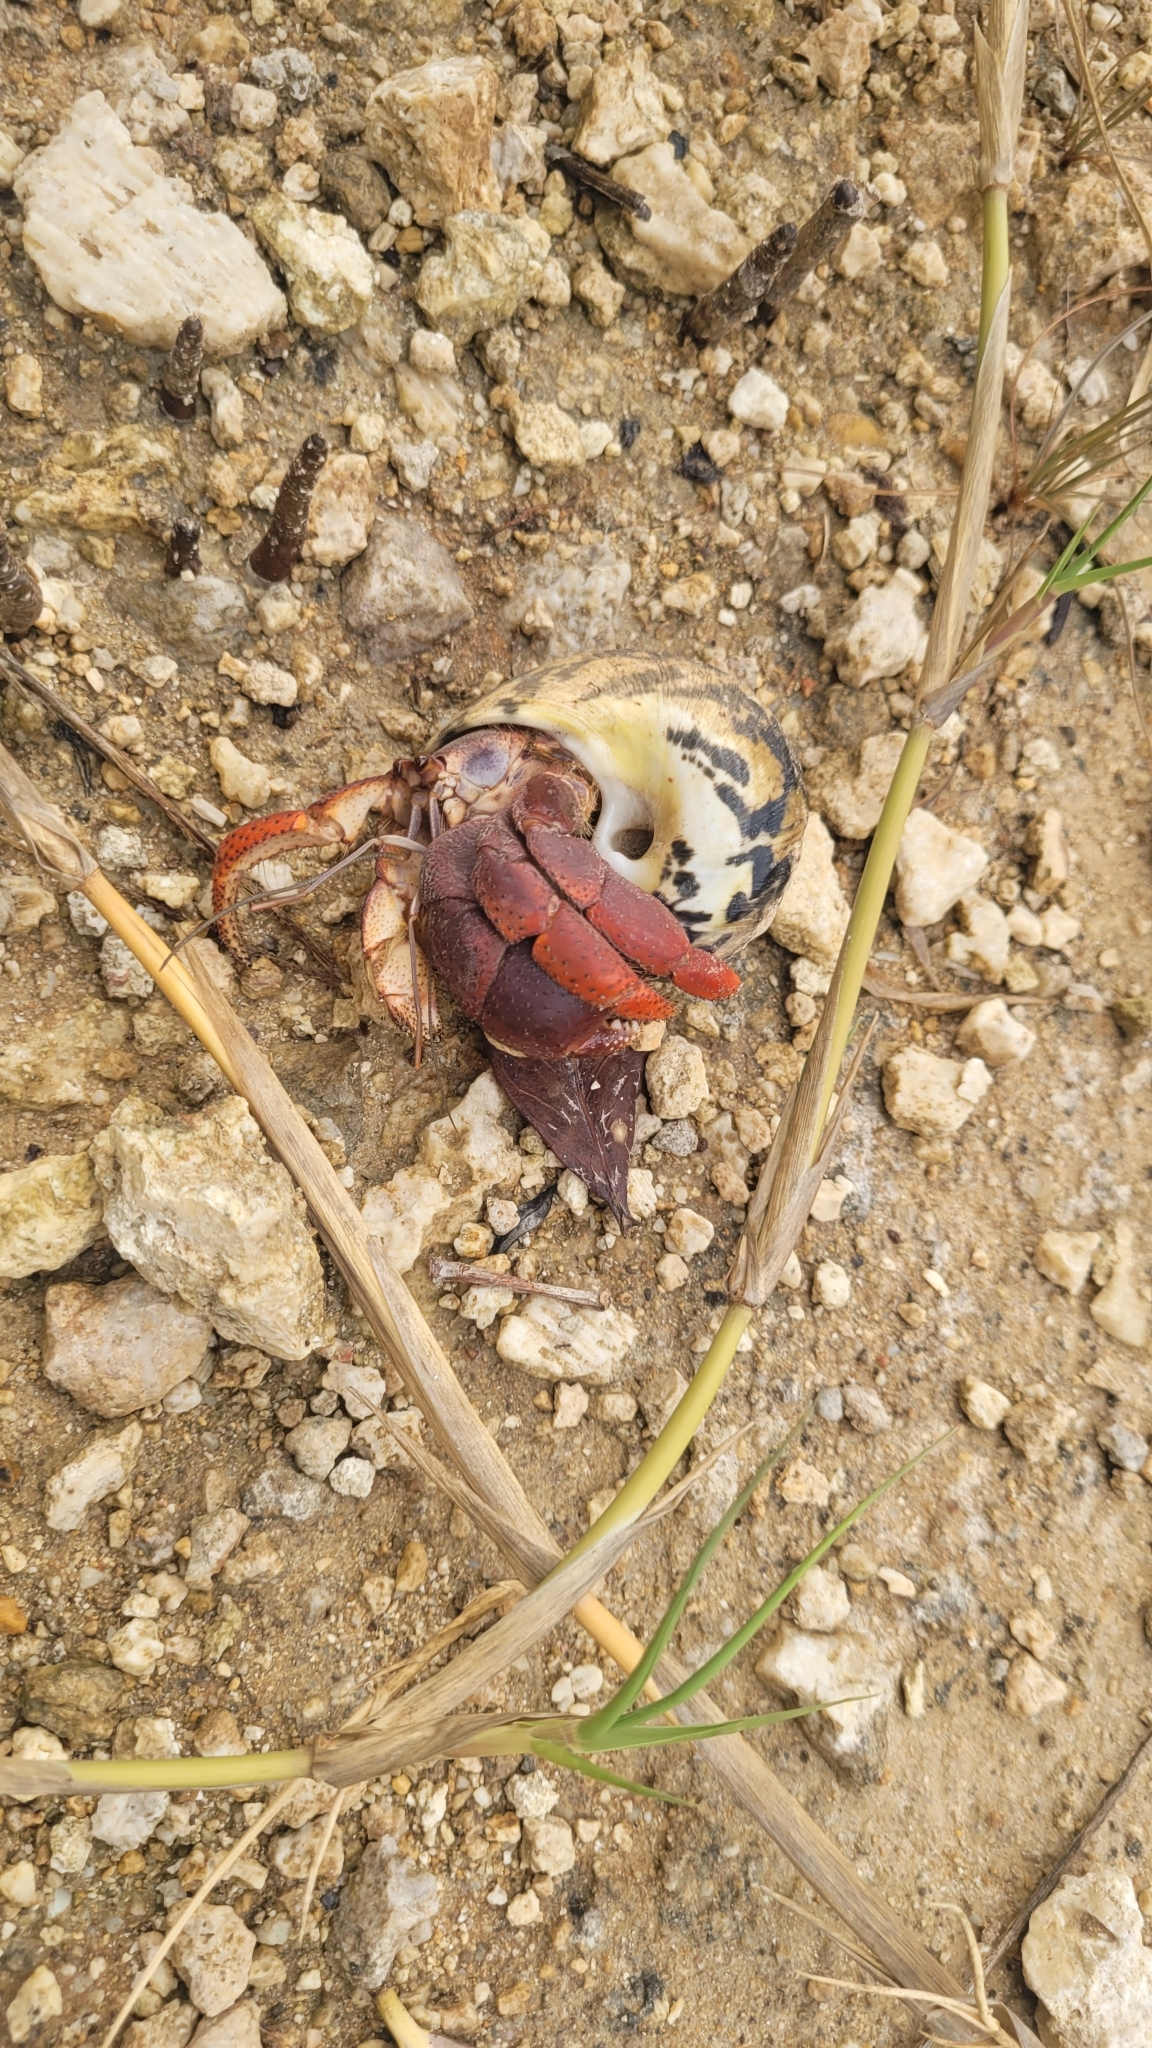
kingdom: Animalia
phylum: Arthropoda
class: Malacostraca
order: Decapoda
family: Coenobitidae
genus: Coenobita
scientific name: Coenobita clypeatus
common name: Caribbean hermit crab
